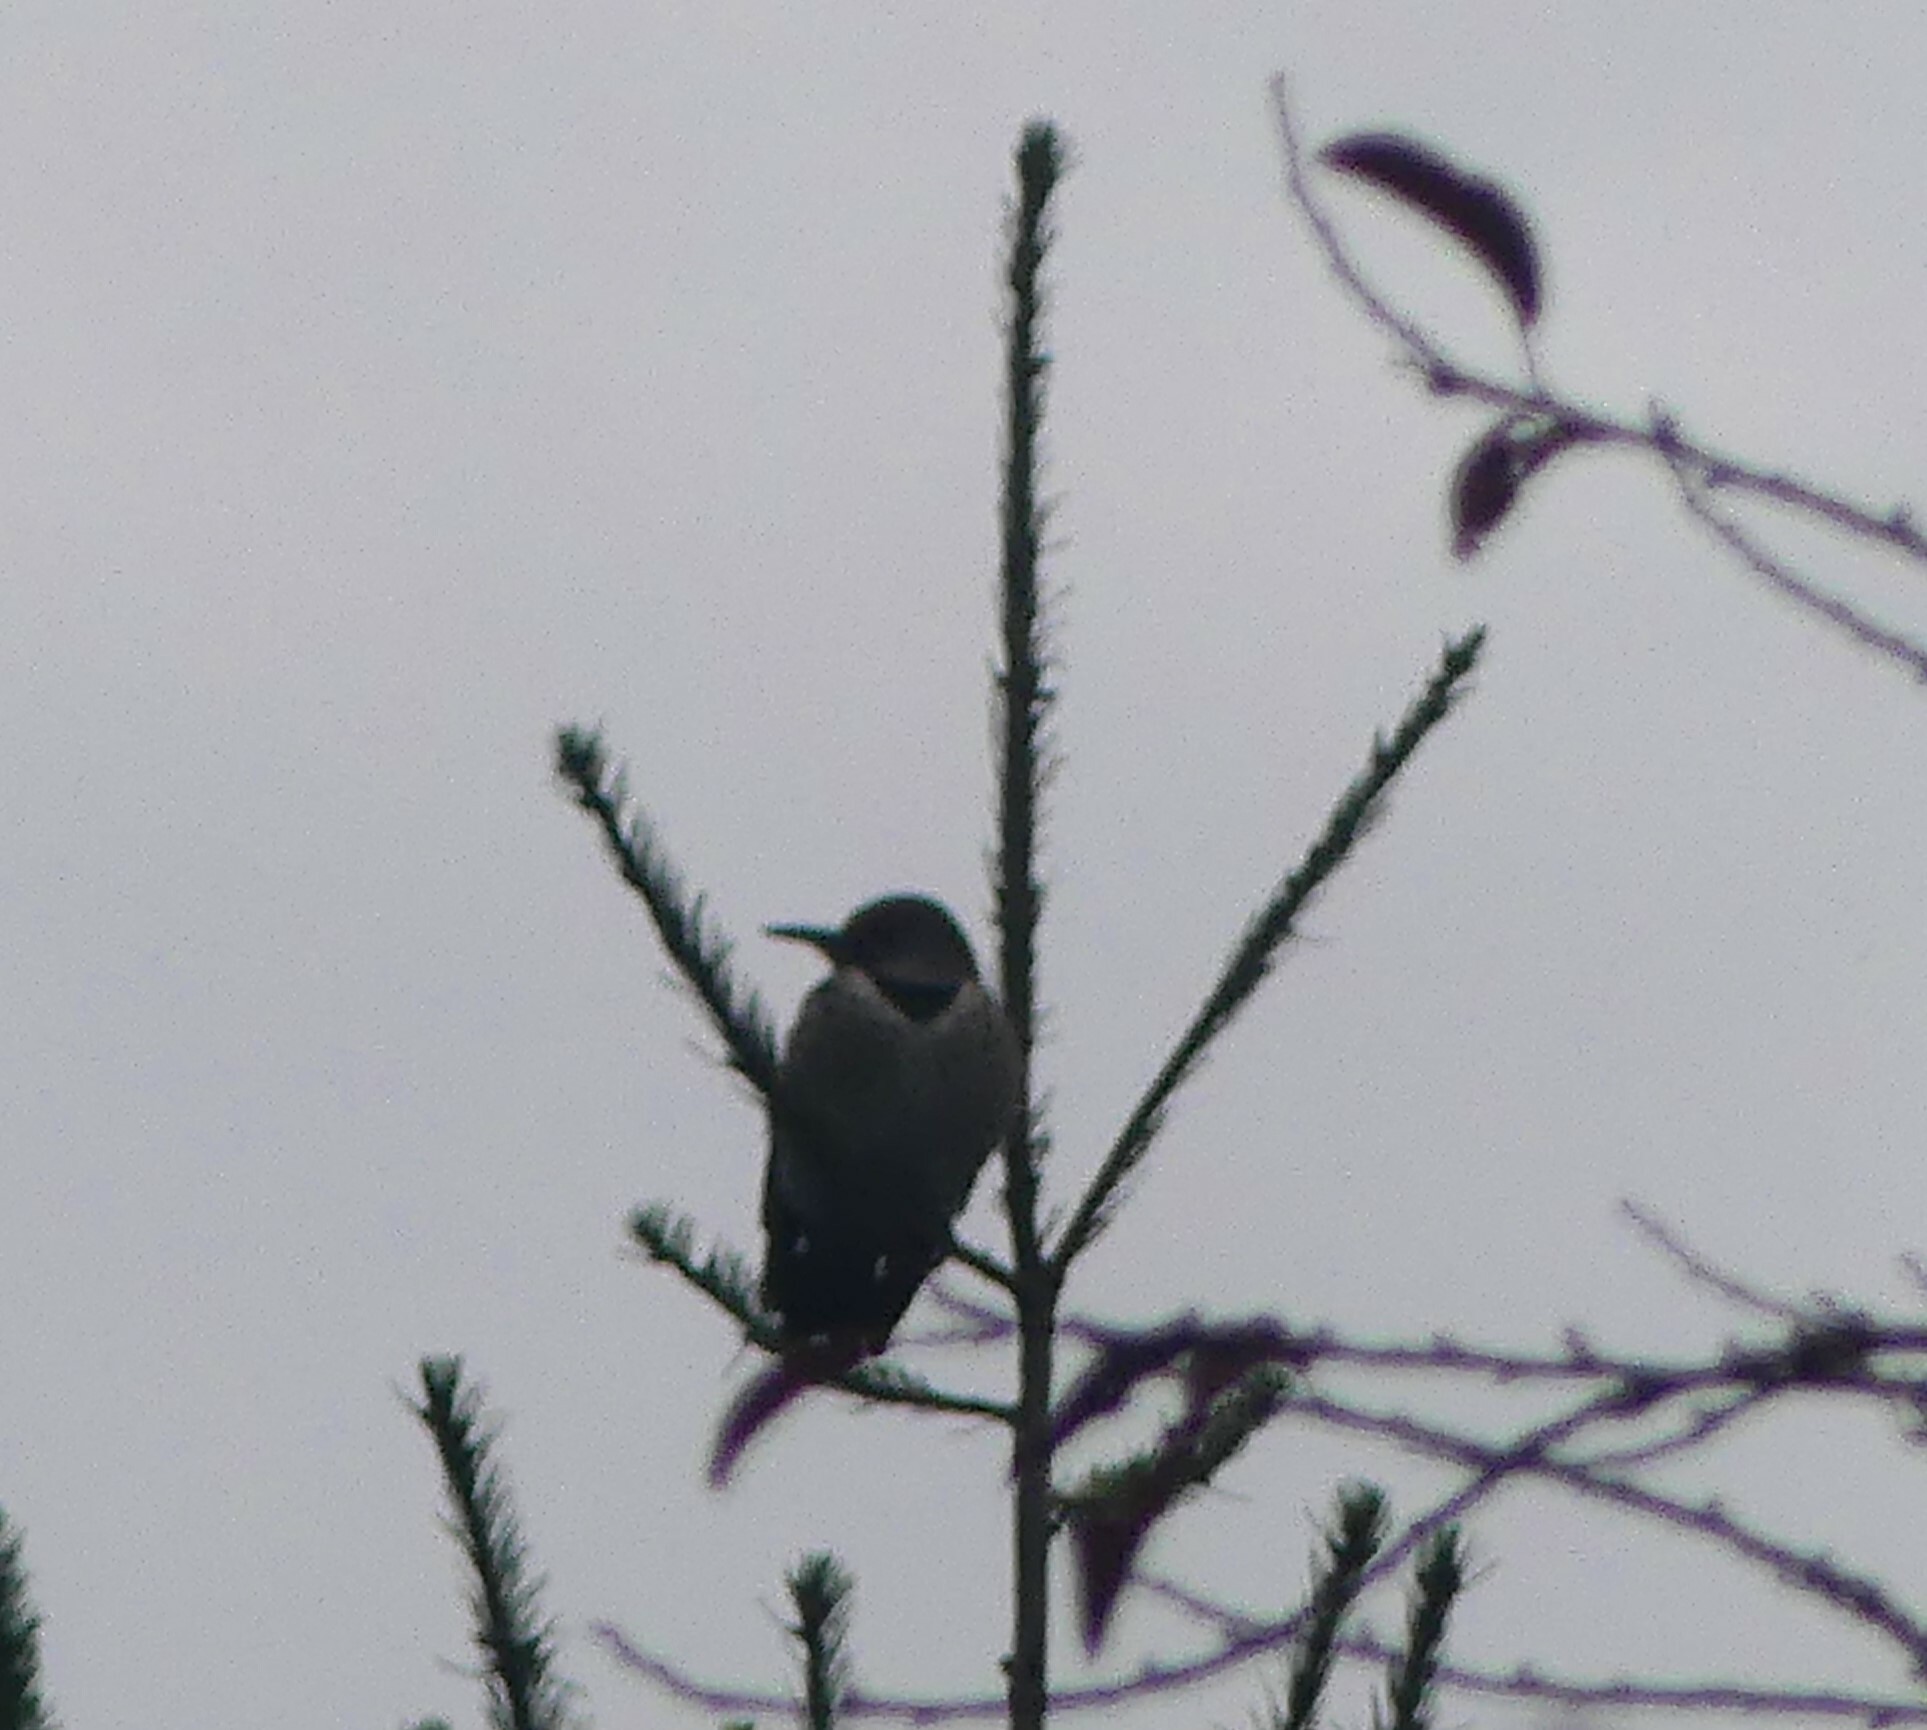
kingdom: Animalia
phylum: Chordata
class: Aves
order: Piciformes
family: Picidae
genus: Colaptes
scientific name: Colaptes auratus
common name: Northern flicker
